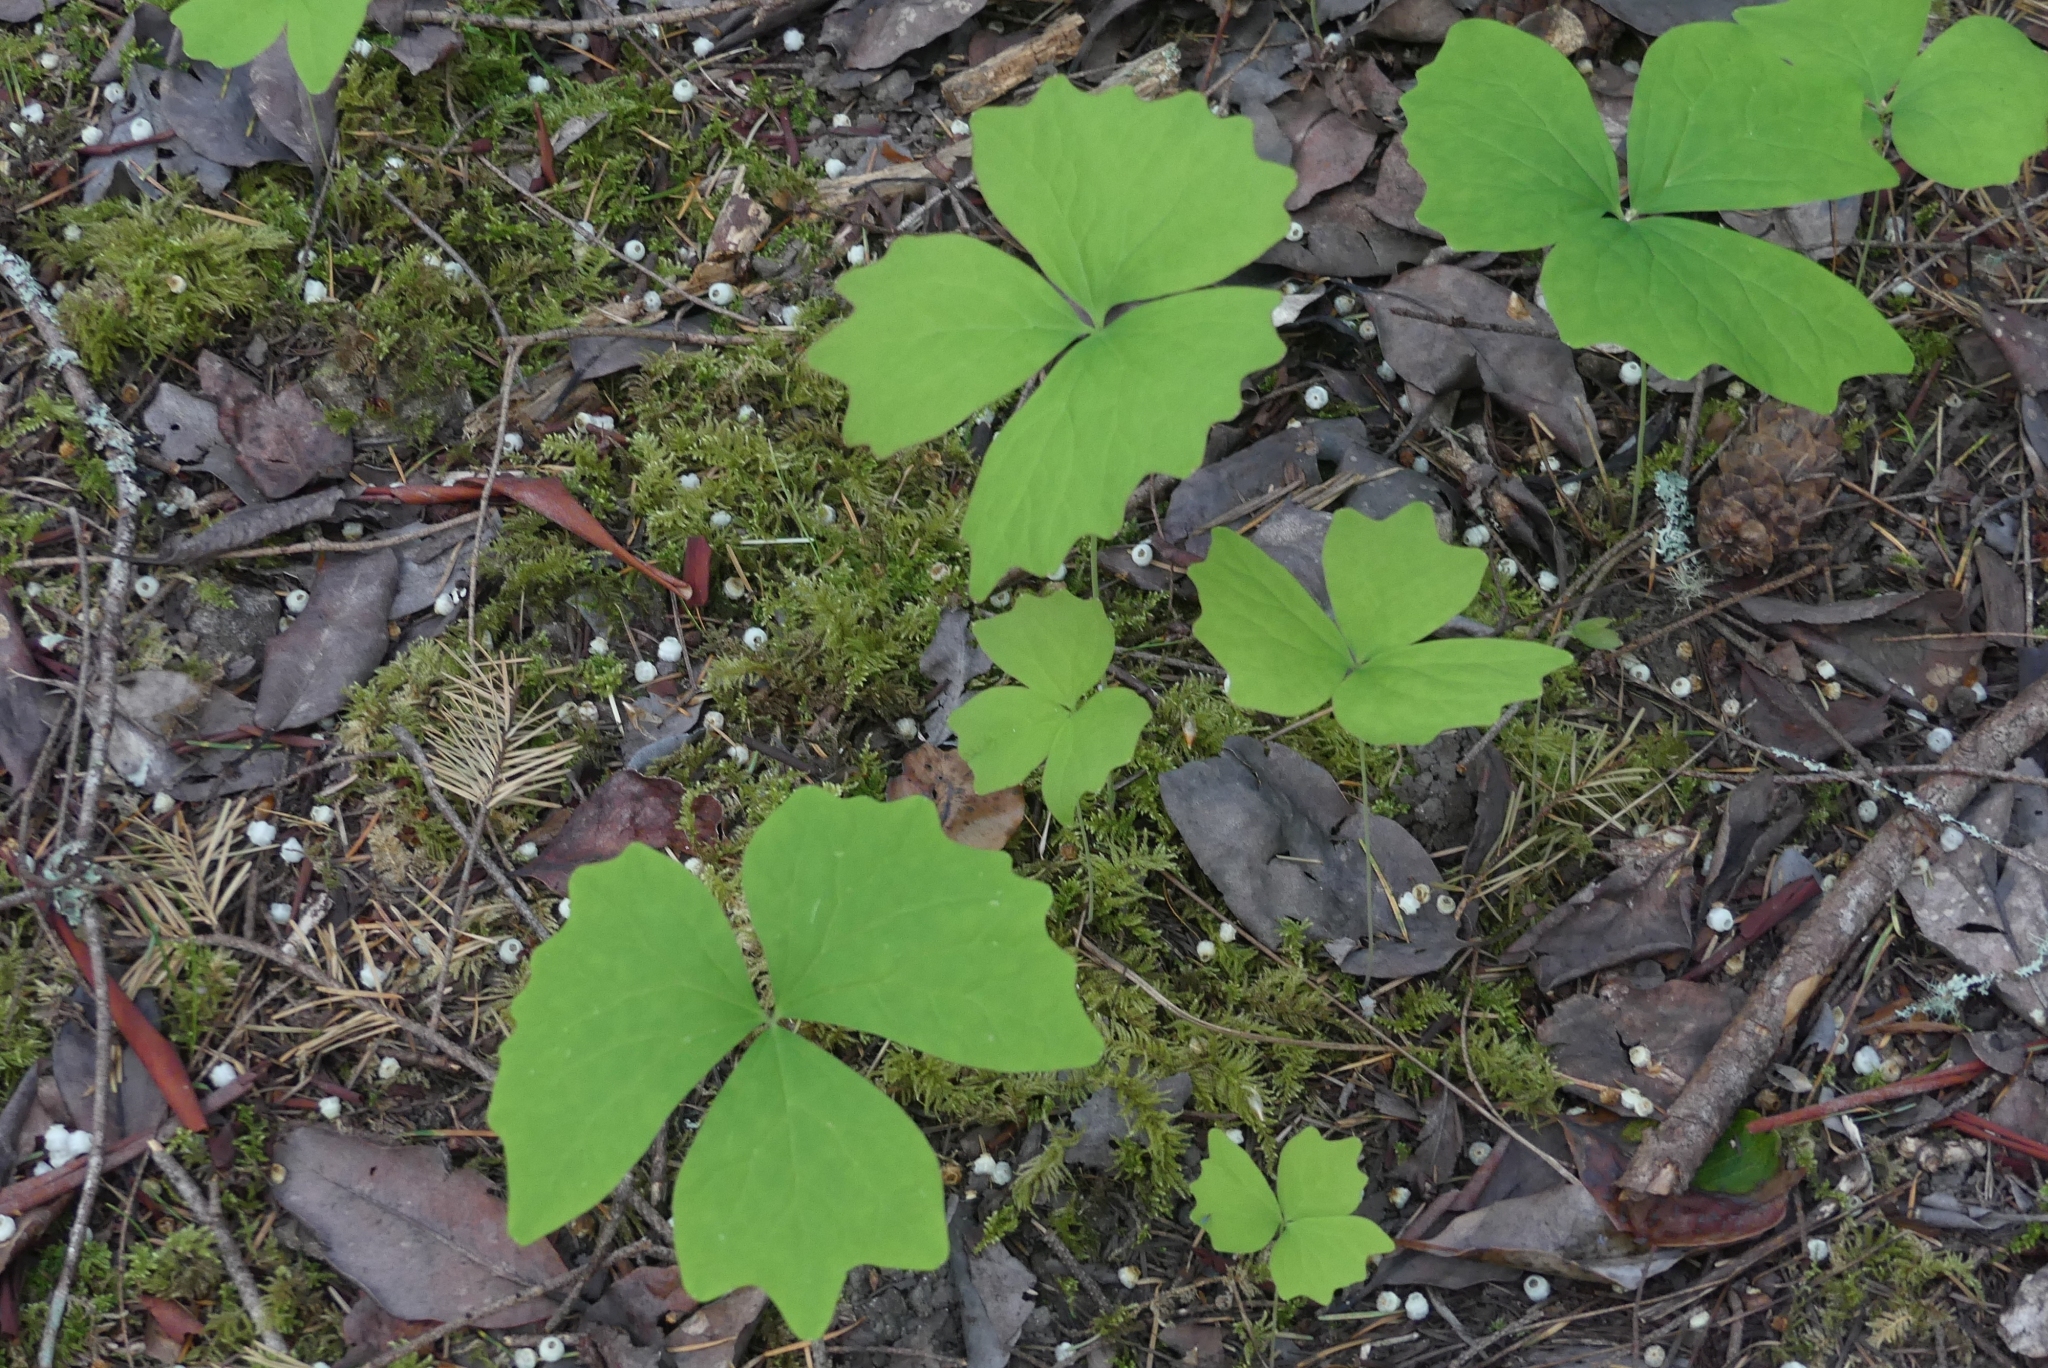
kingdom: Plantae
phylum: Tracheophyta
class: Magnoliopsida
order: Ranunculales
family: Berberidaceae
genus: Achlys
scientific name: Achlys triphylla
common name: Vanilla-leaf
